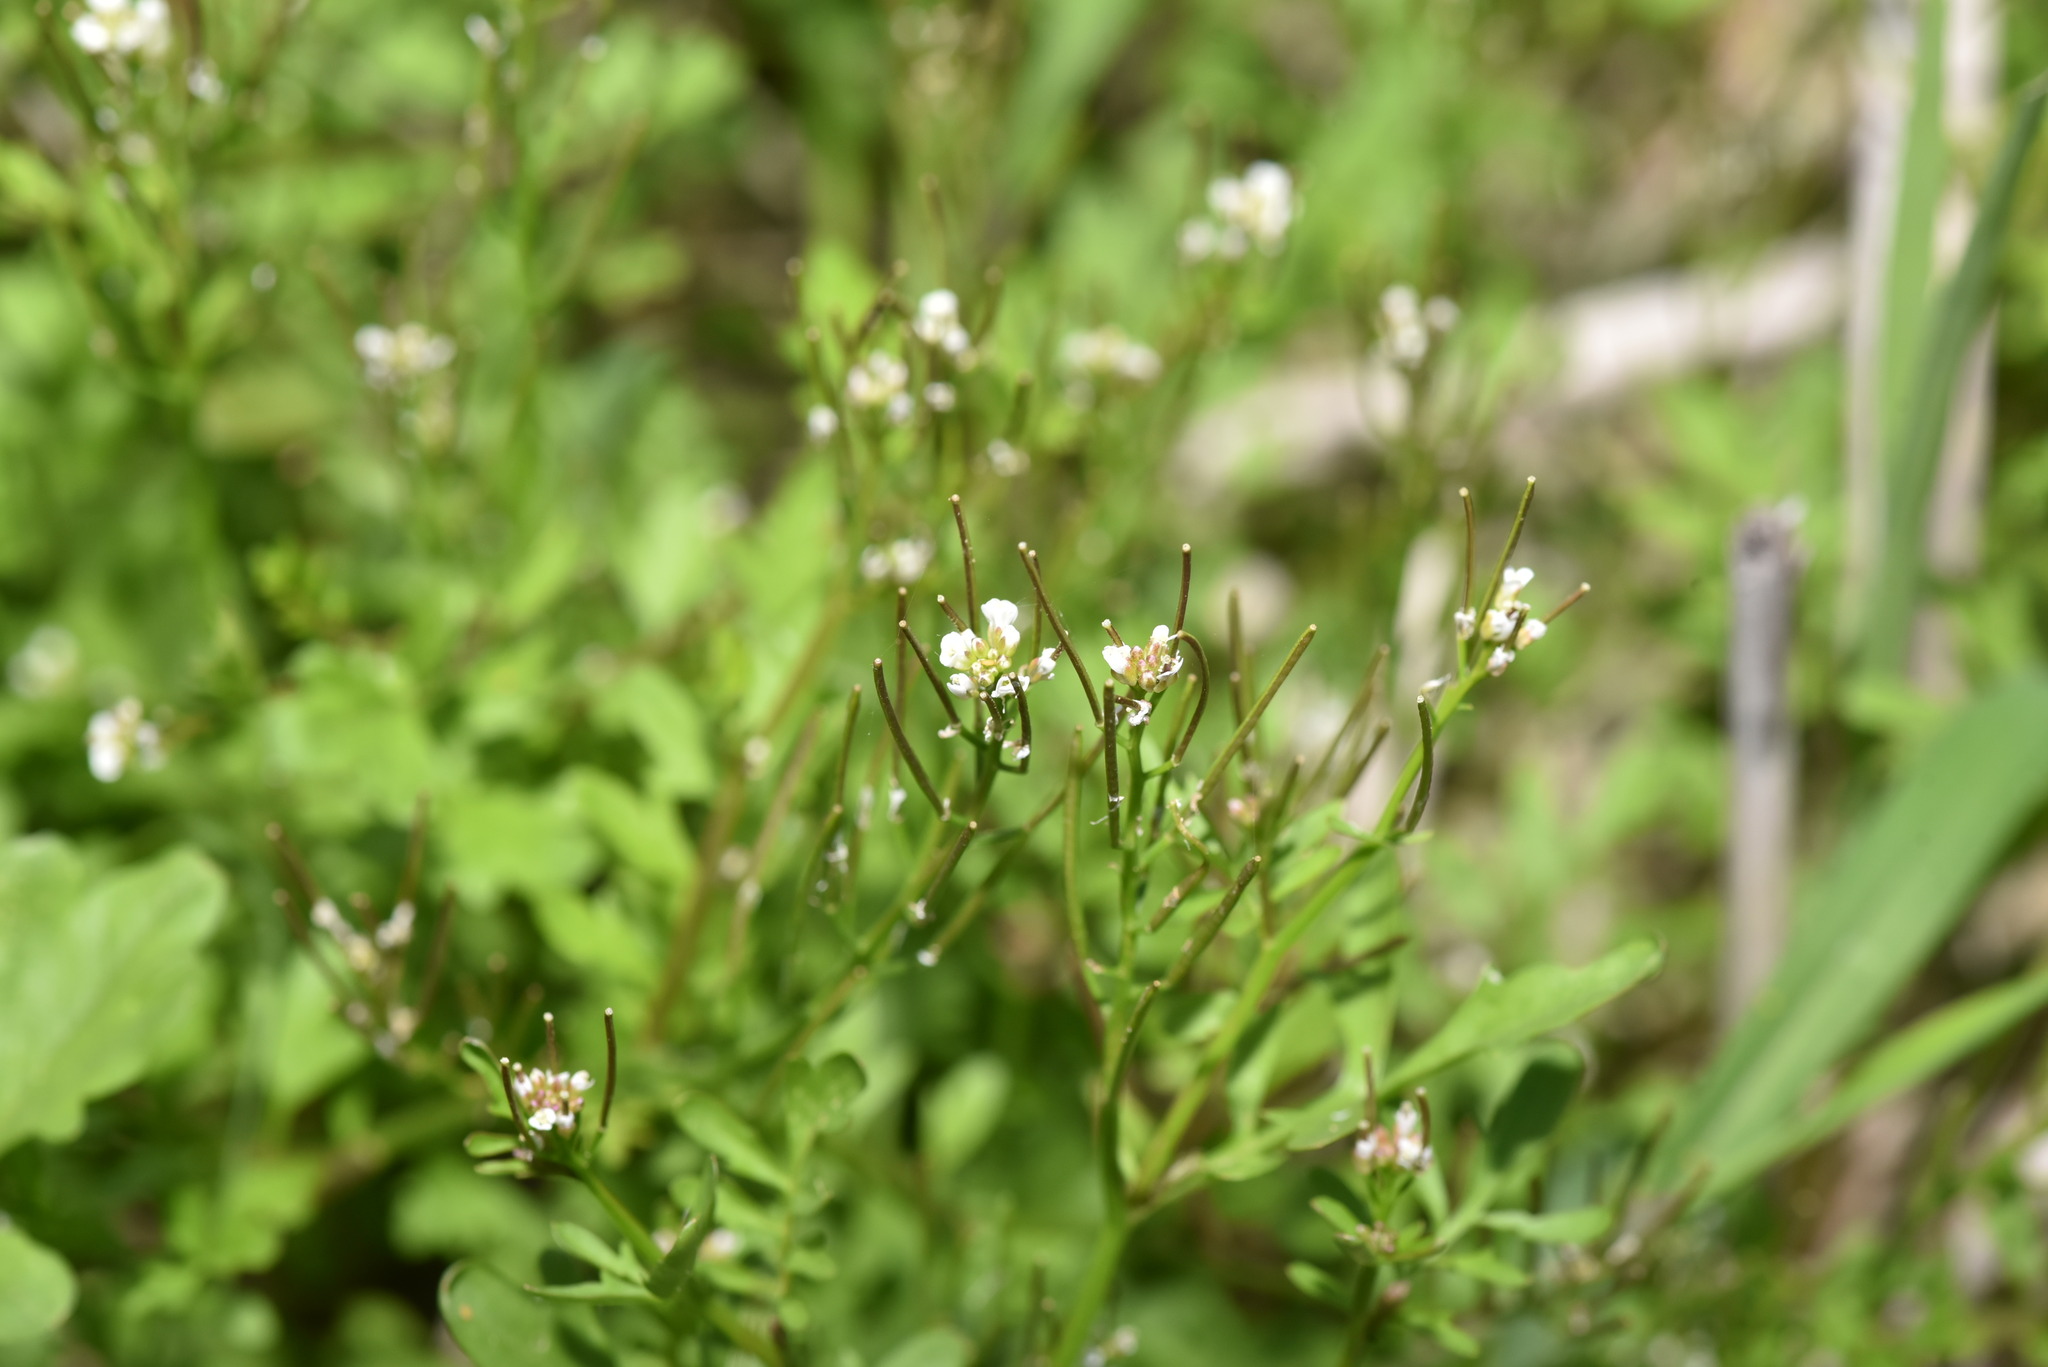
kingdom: Plantae
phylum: Tracheophyta
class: Magnoliopsida
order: Brassicales
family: Brassicaceae
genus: Cardamine
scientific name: Cardamine flexuosa
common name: Woodland bittercress
